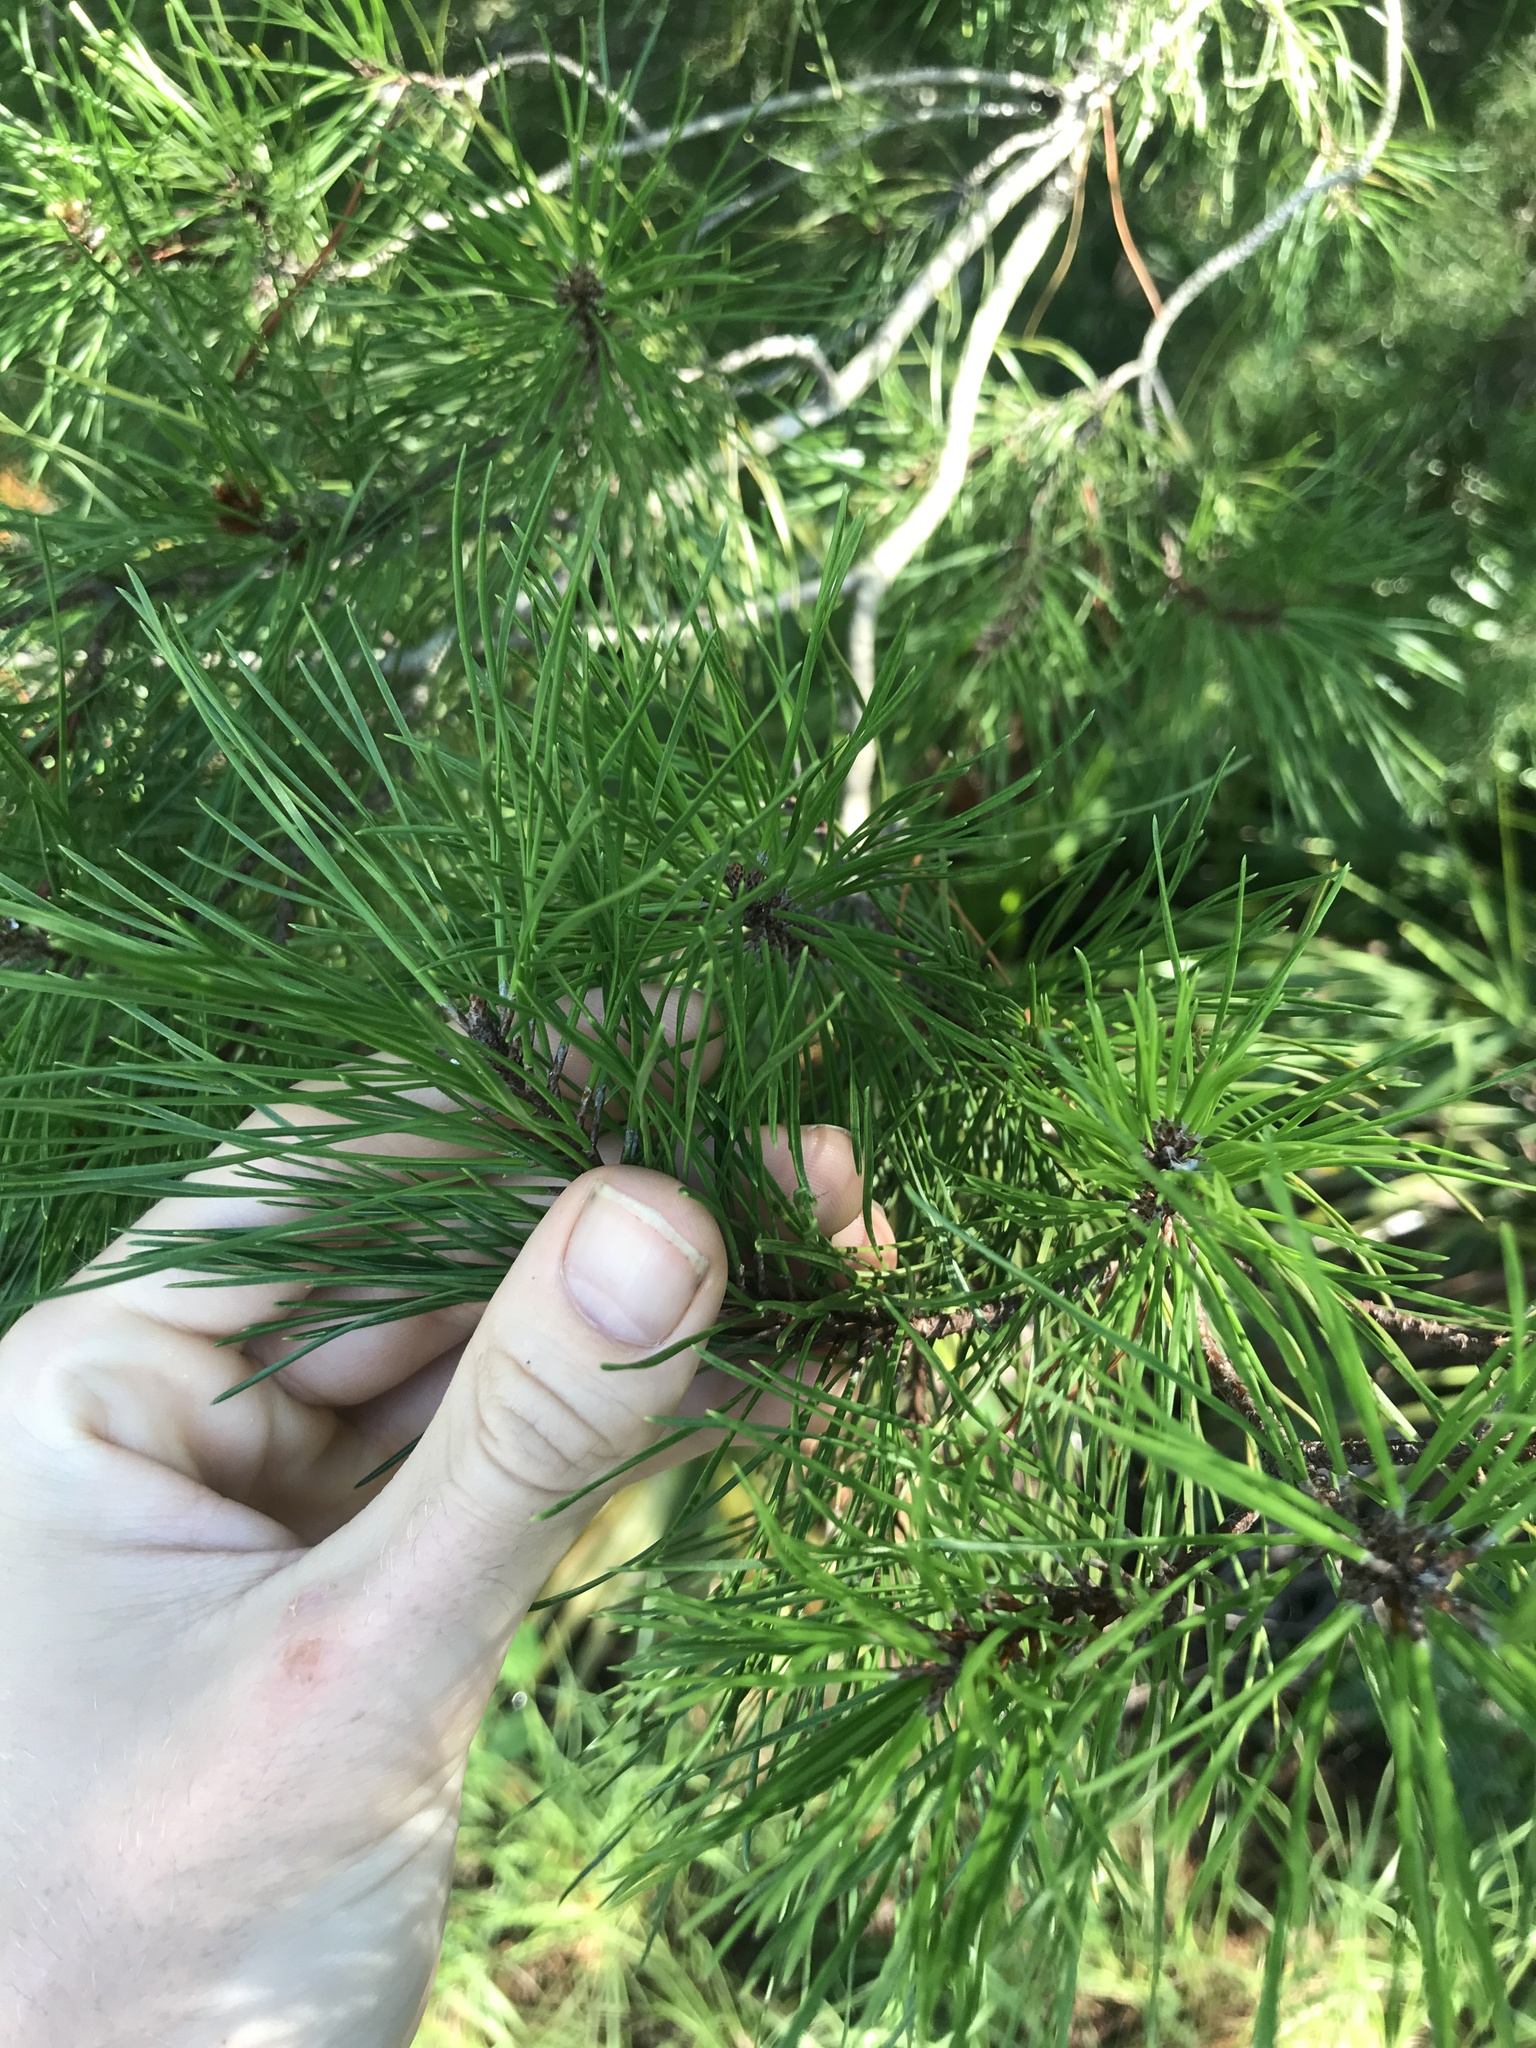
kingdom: Plantae
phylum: Tracheophyta
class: Pinopsida
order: Pinales
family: Pinaceae
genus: Pinus
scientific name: Pinus clausa
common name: Sand pine
